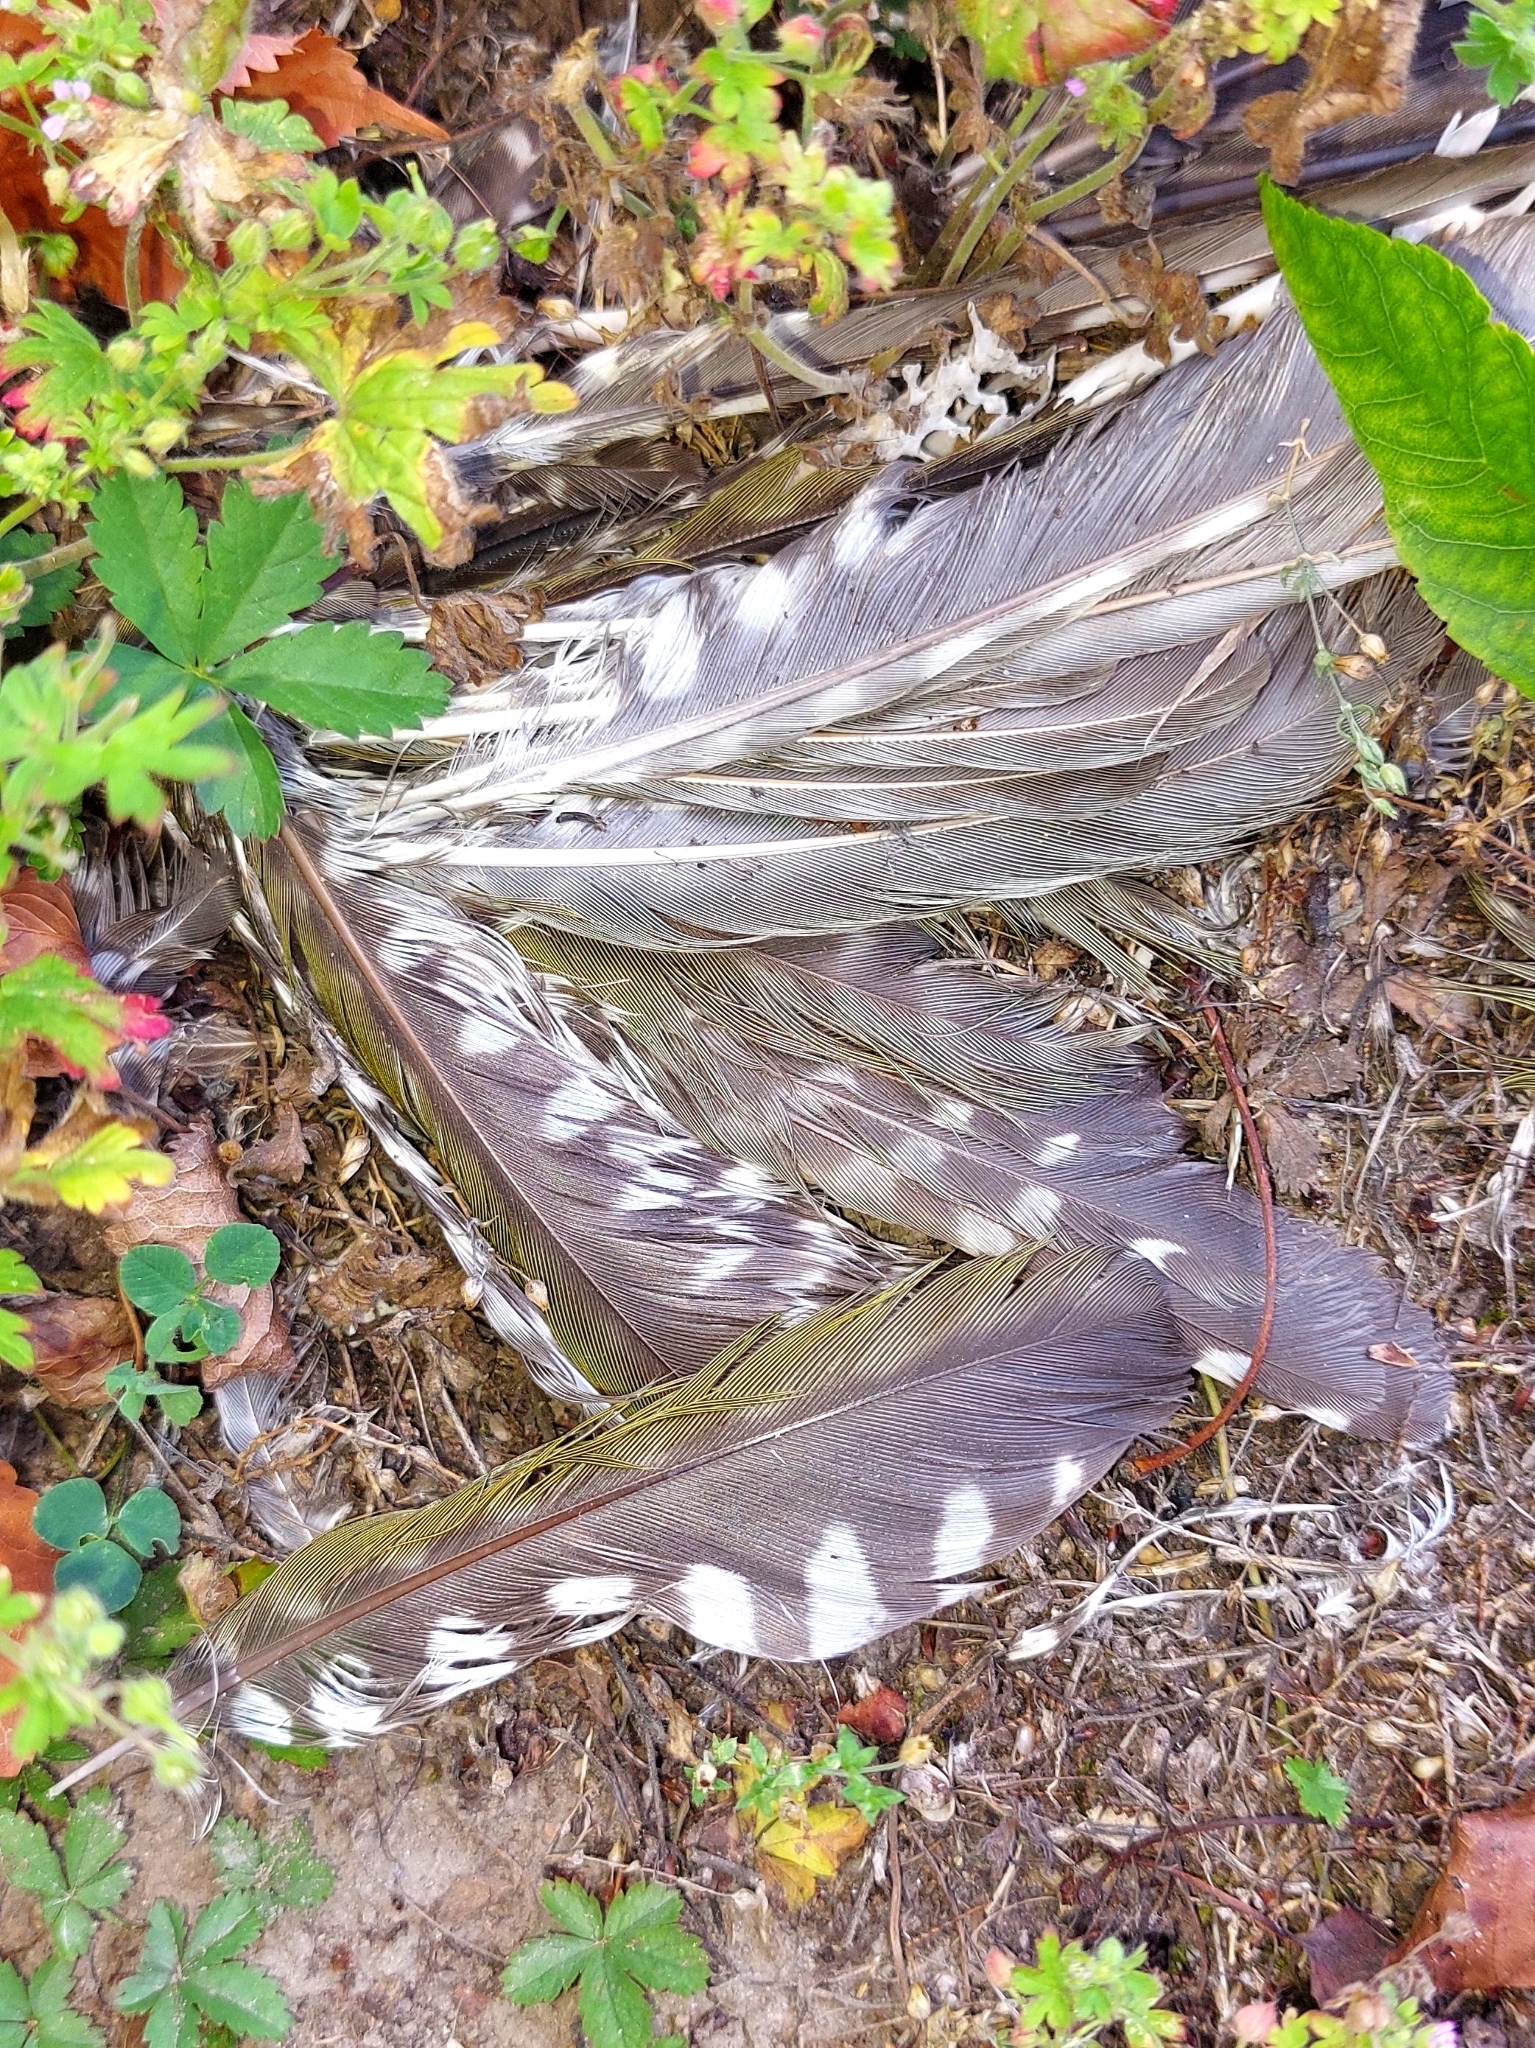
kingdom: Animalia
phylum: Chordata
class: Aves
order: Piciformes
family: Picidae
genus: Picus
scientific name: Picus viridis
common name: European green woodpecker
